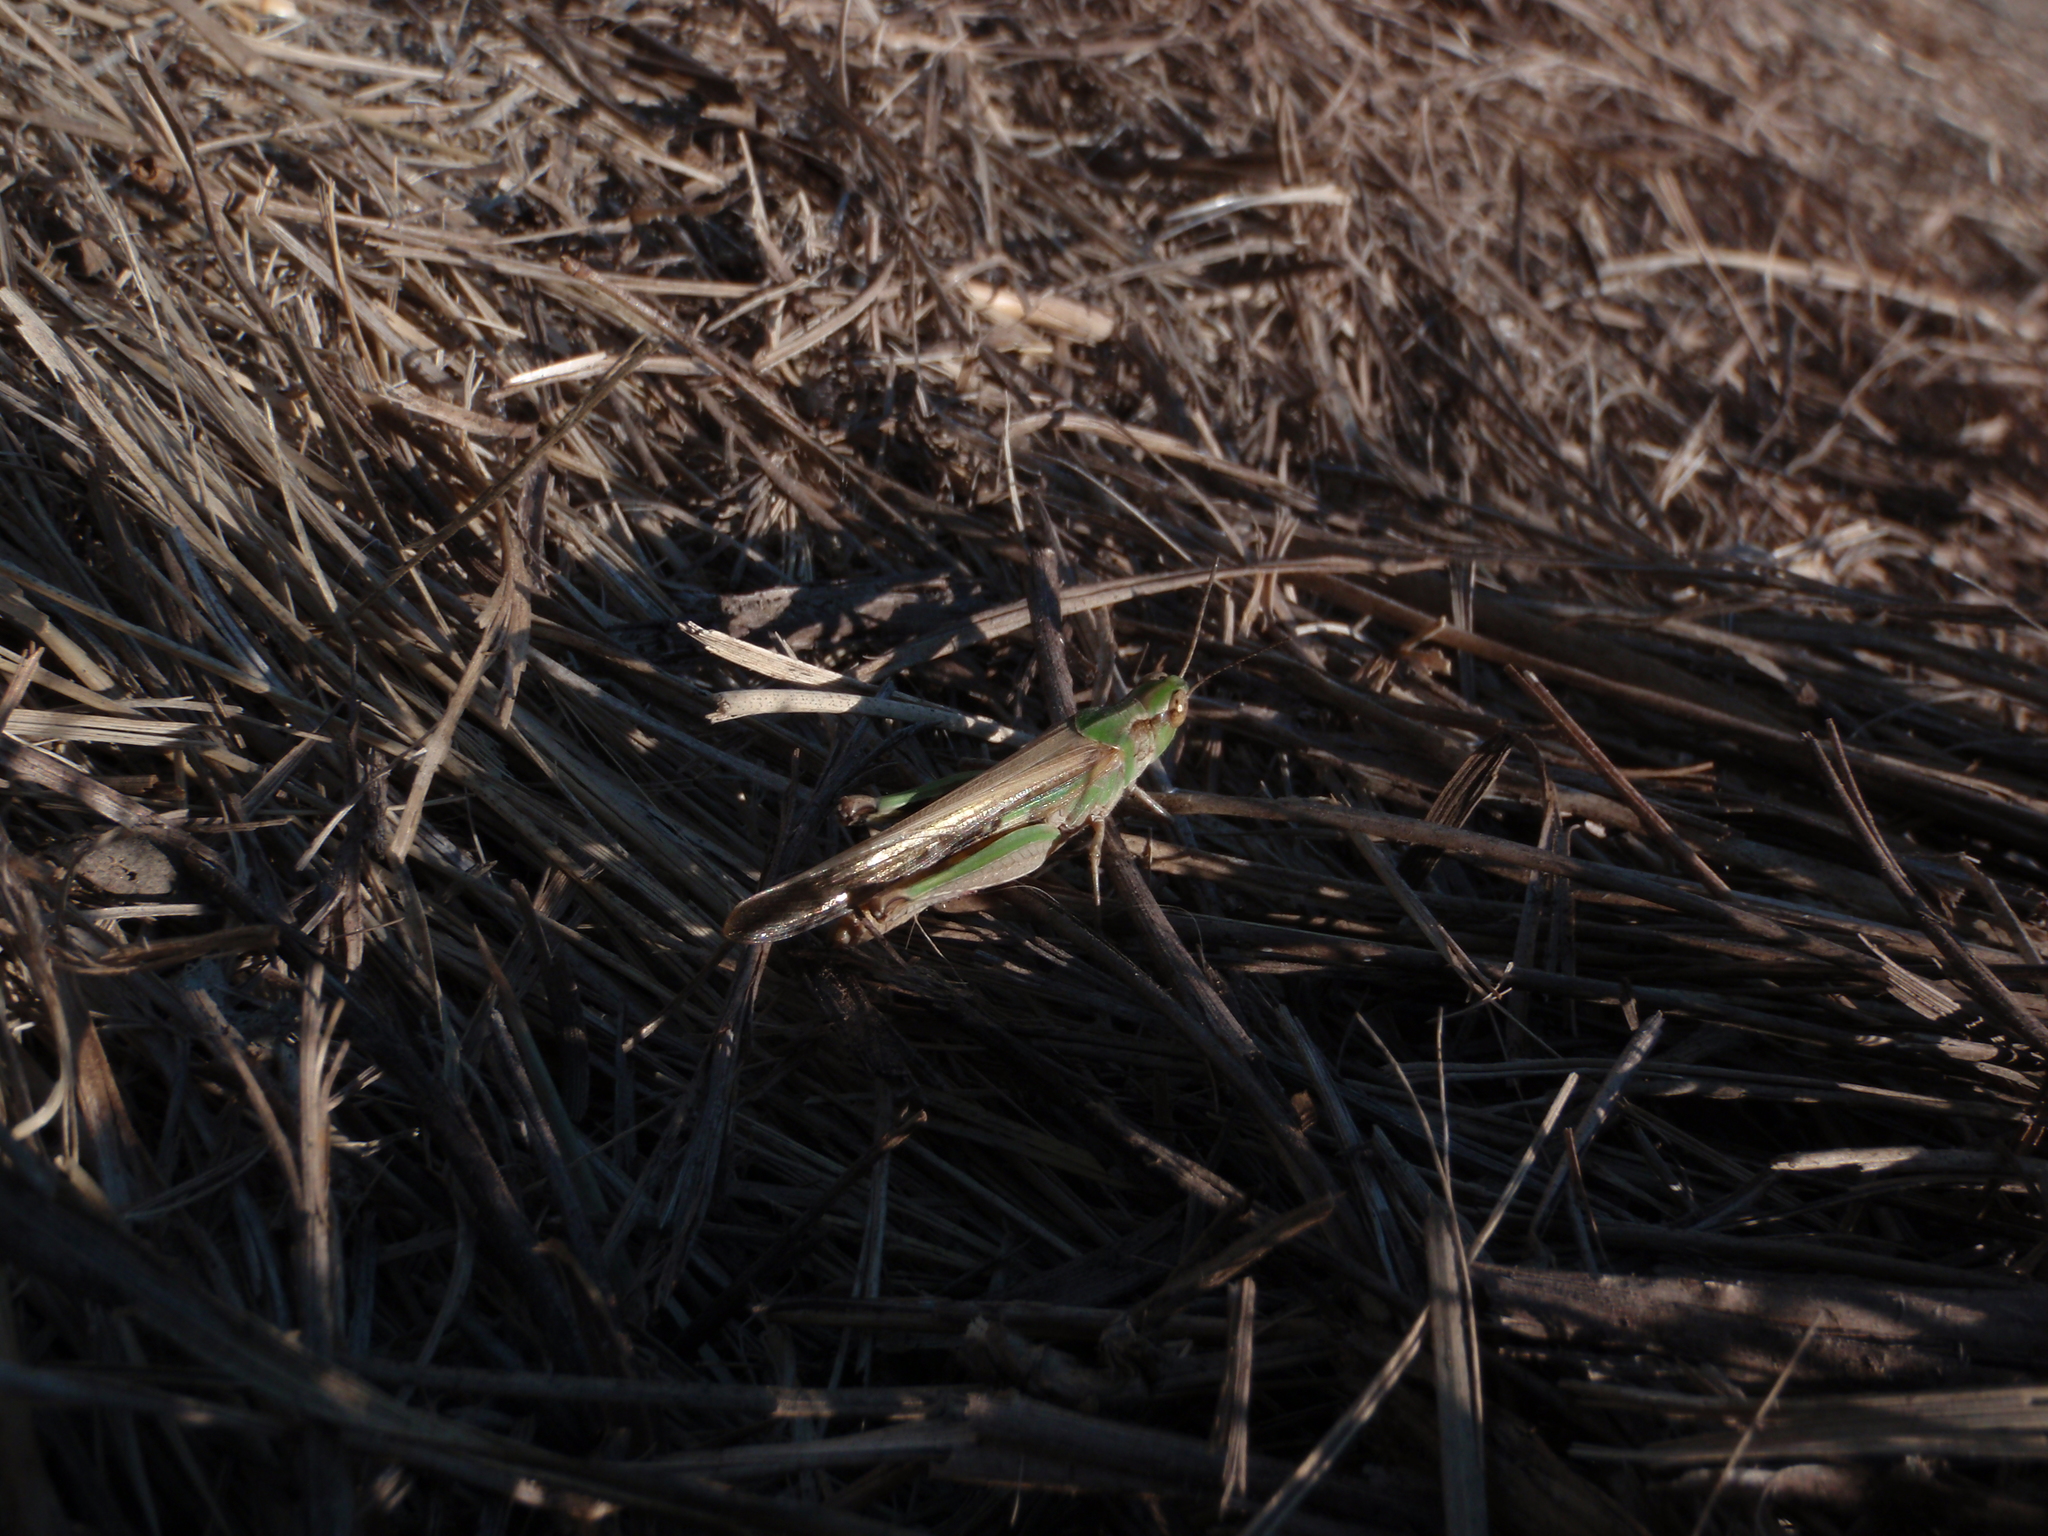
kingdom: Animalia
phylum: Arthropoda
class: Insecta
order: Orthoptera
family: Acrididae
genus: Aiolopus
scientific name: Aiolopus puissanti
